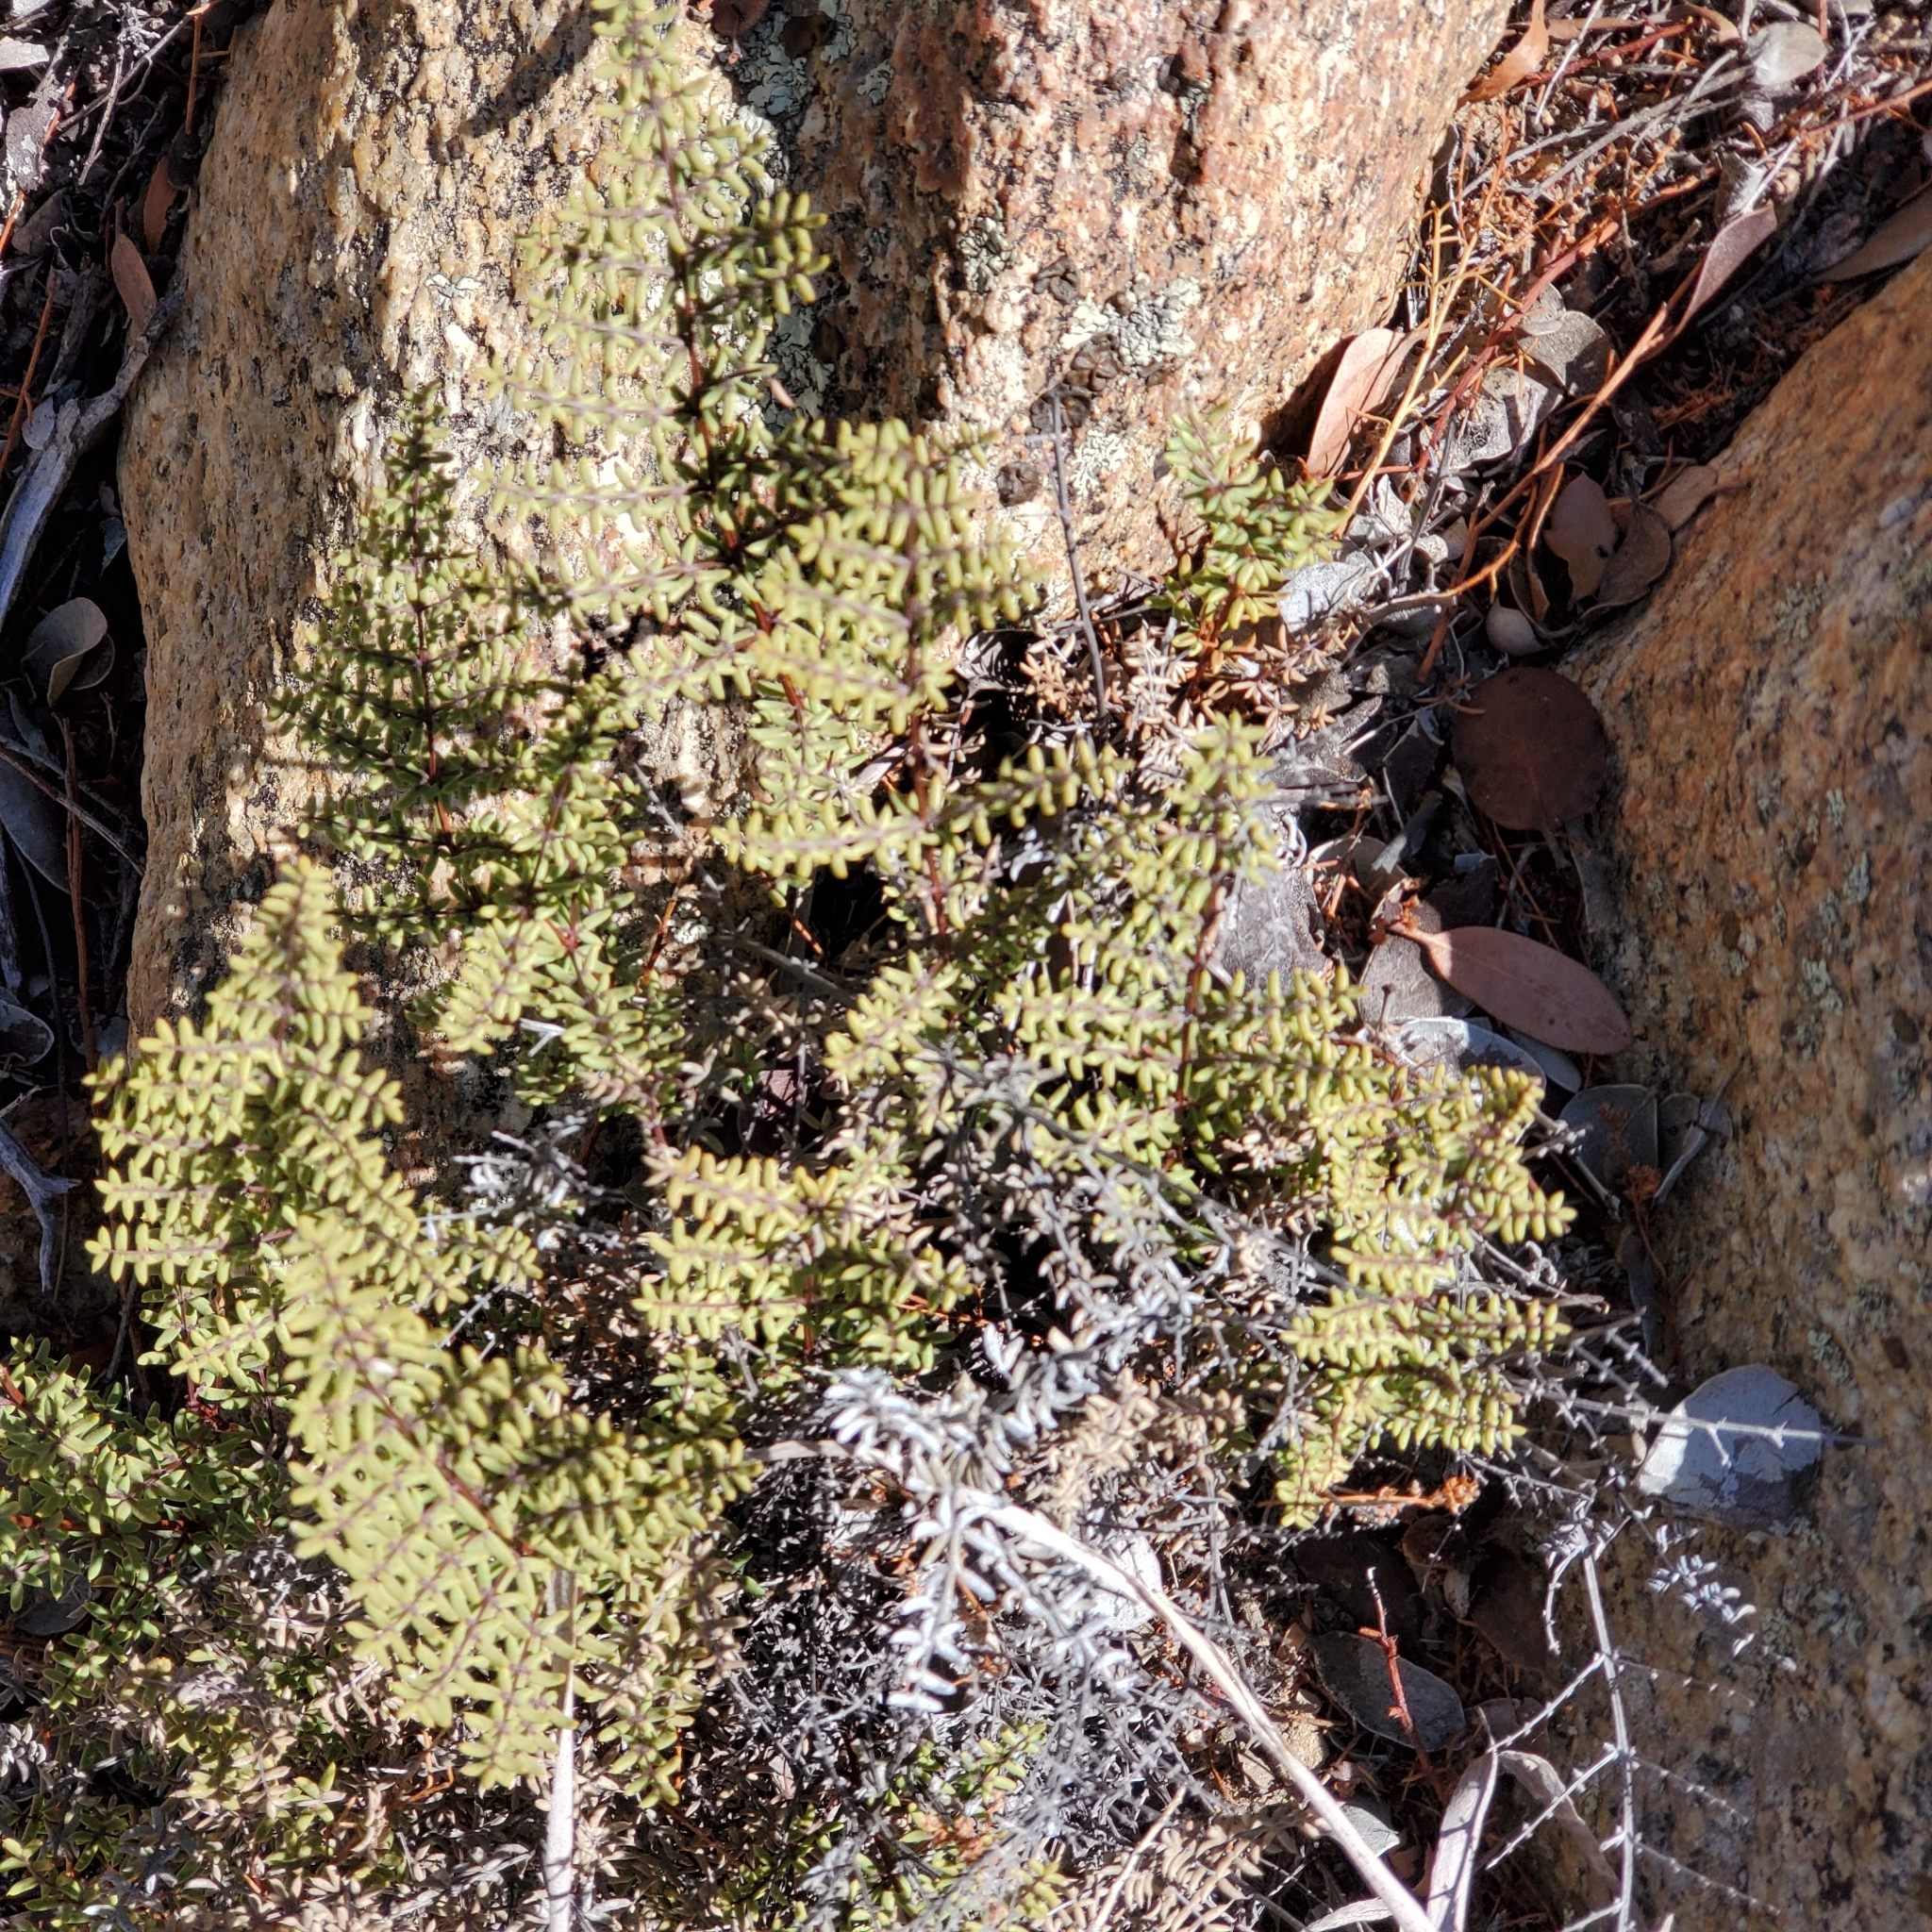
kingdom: Plantae
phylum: Tracheophyta
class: Polypodiopsida
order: Polypodiales
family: Pteridaceae
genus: Pellaea
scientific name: Pellaea mucronata
